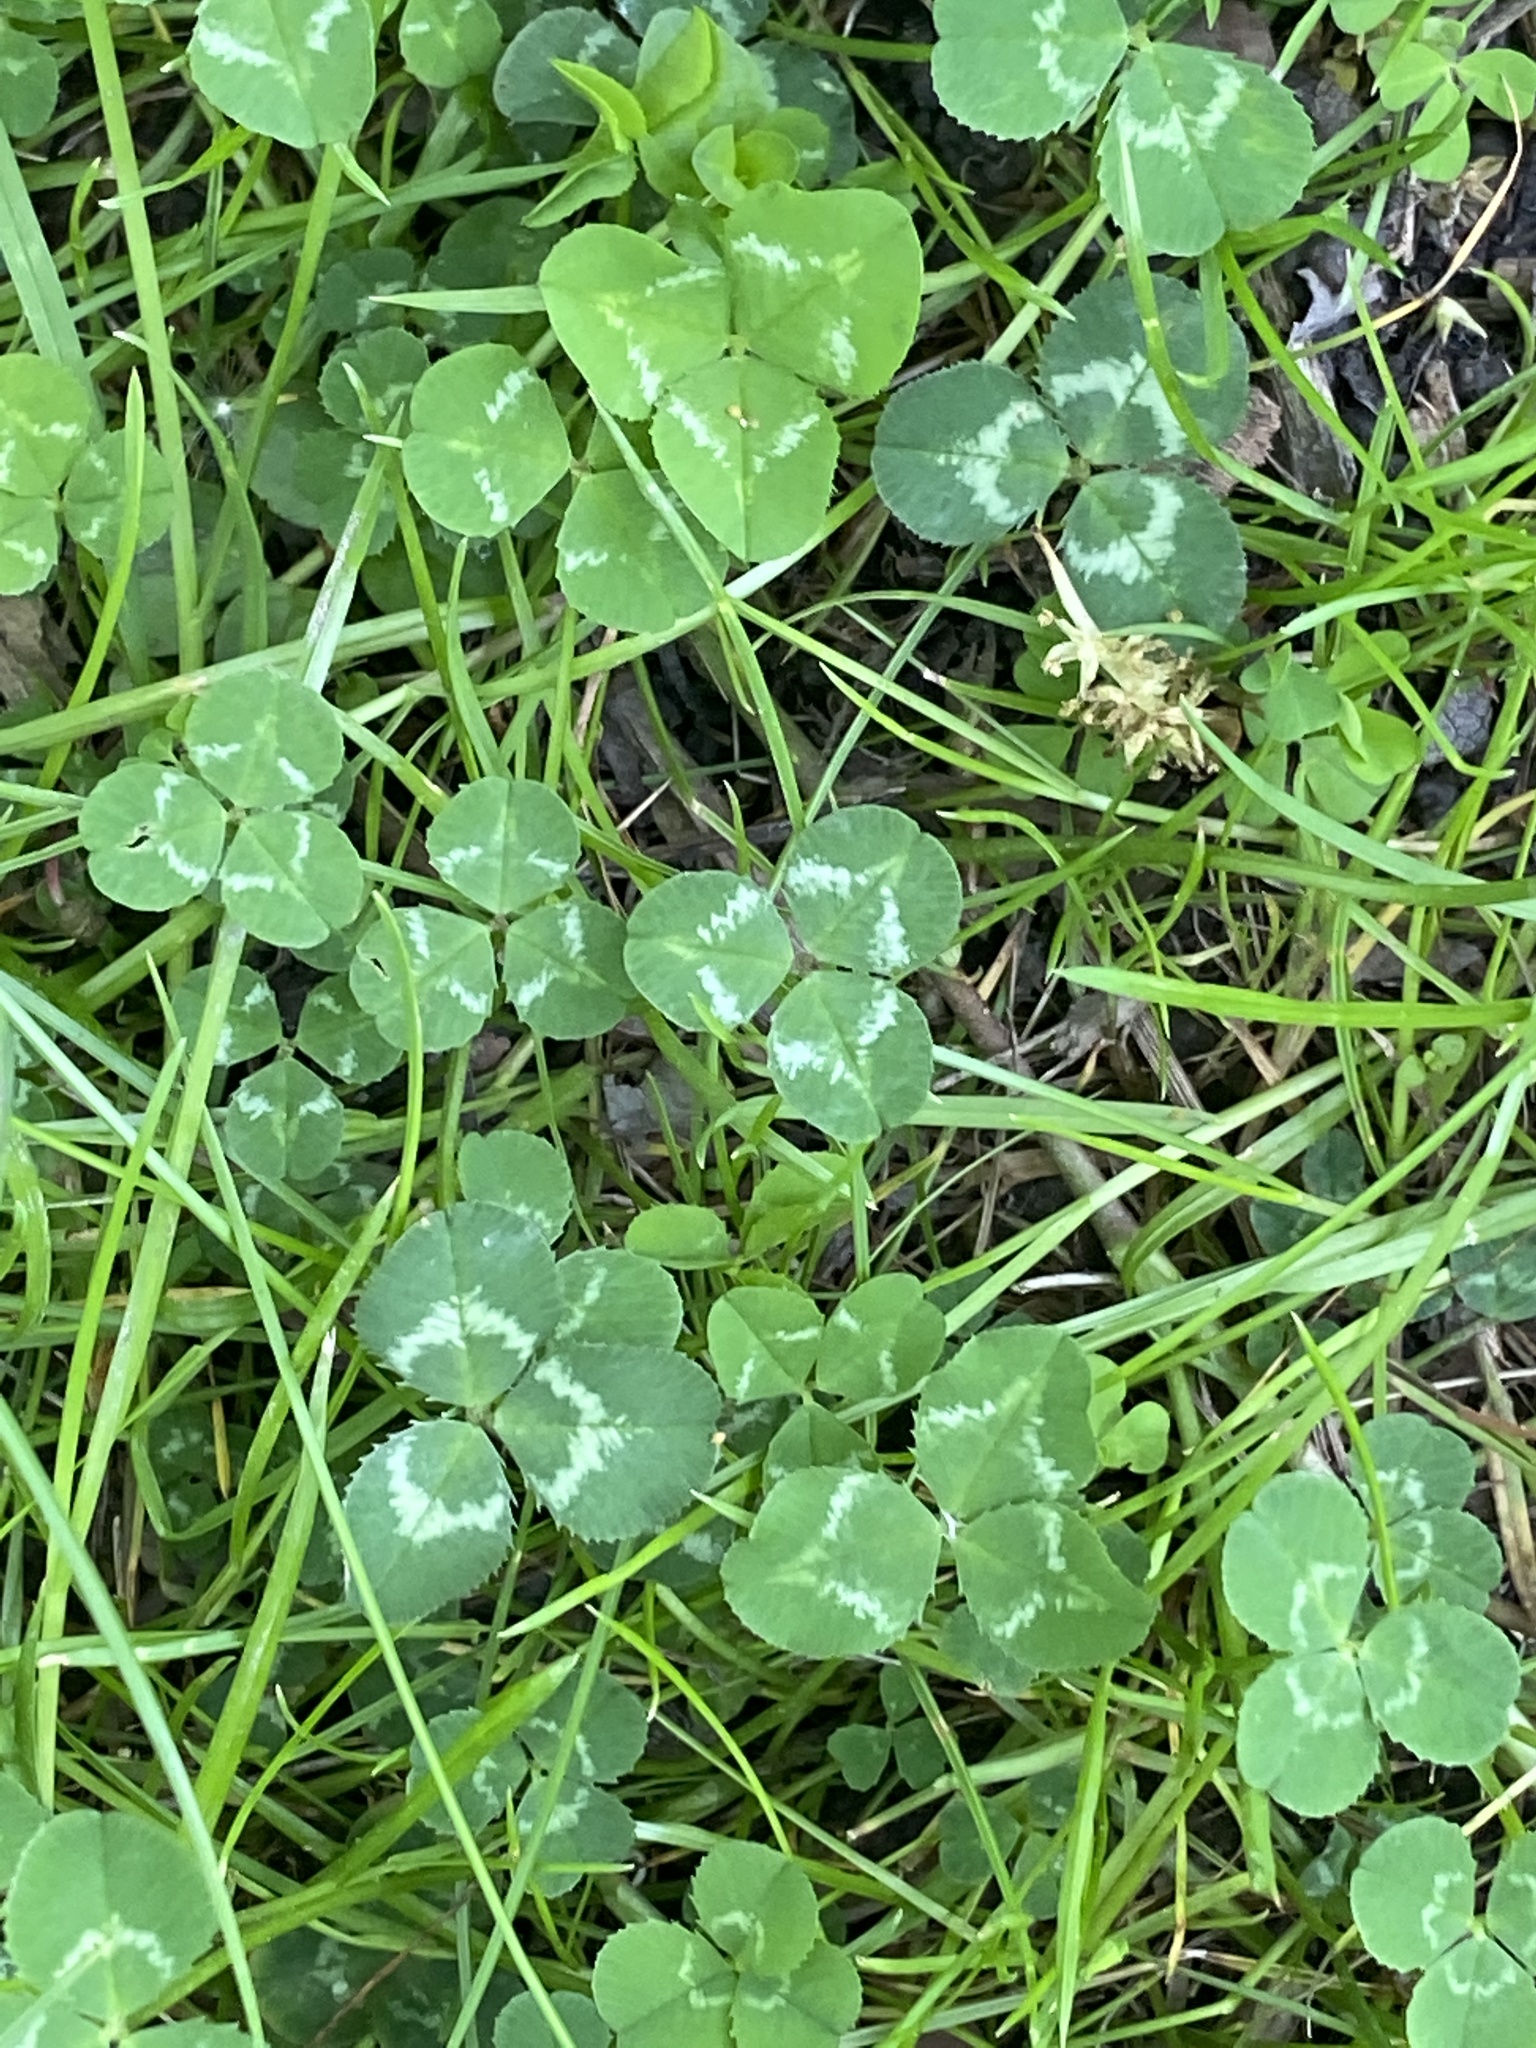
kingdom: Plantae
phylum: Tracheophyta
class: Magnoliopsida
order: Fabales
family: Fabaceae
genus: Trifolium
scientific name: Trifolium repens
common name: White clover
